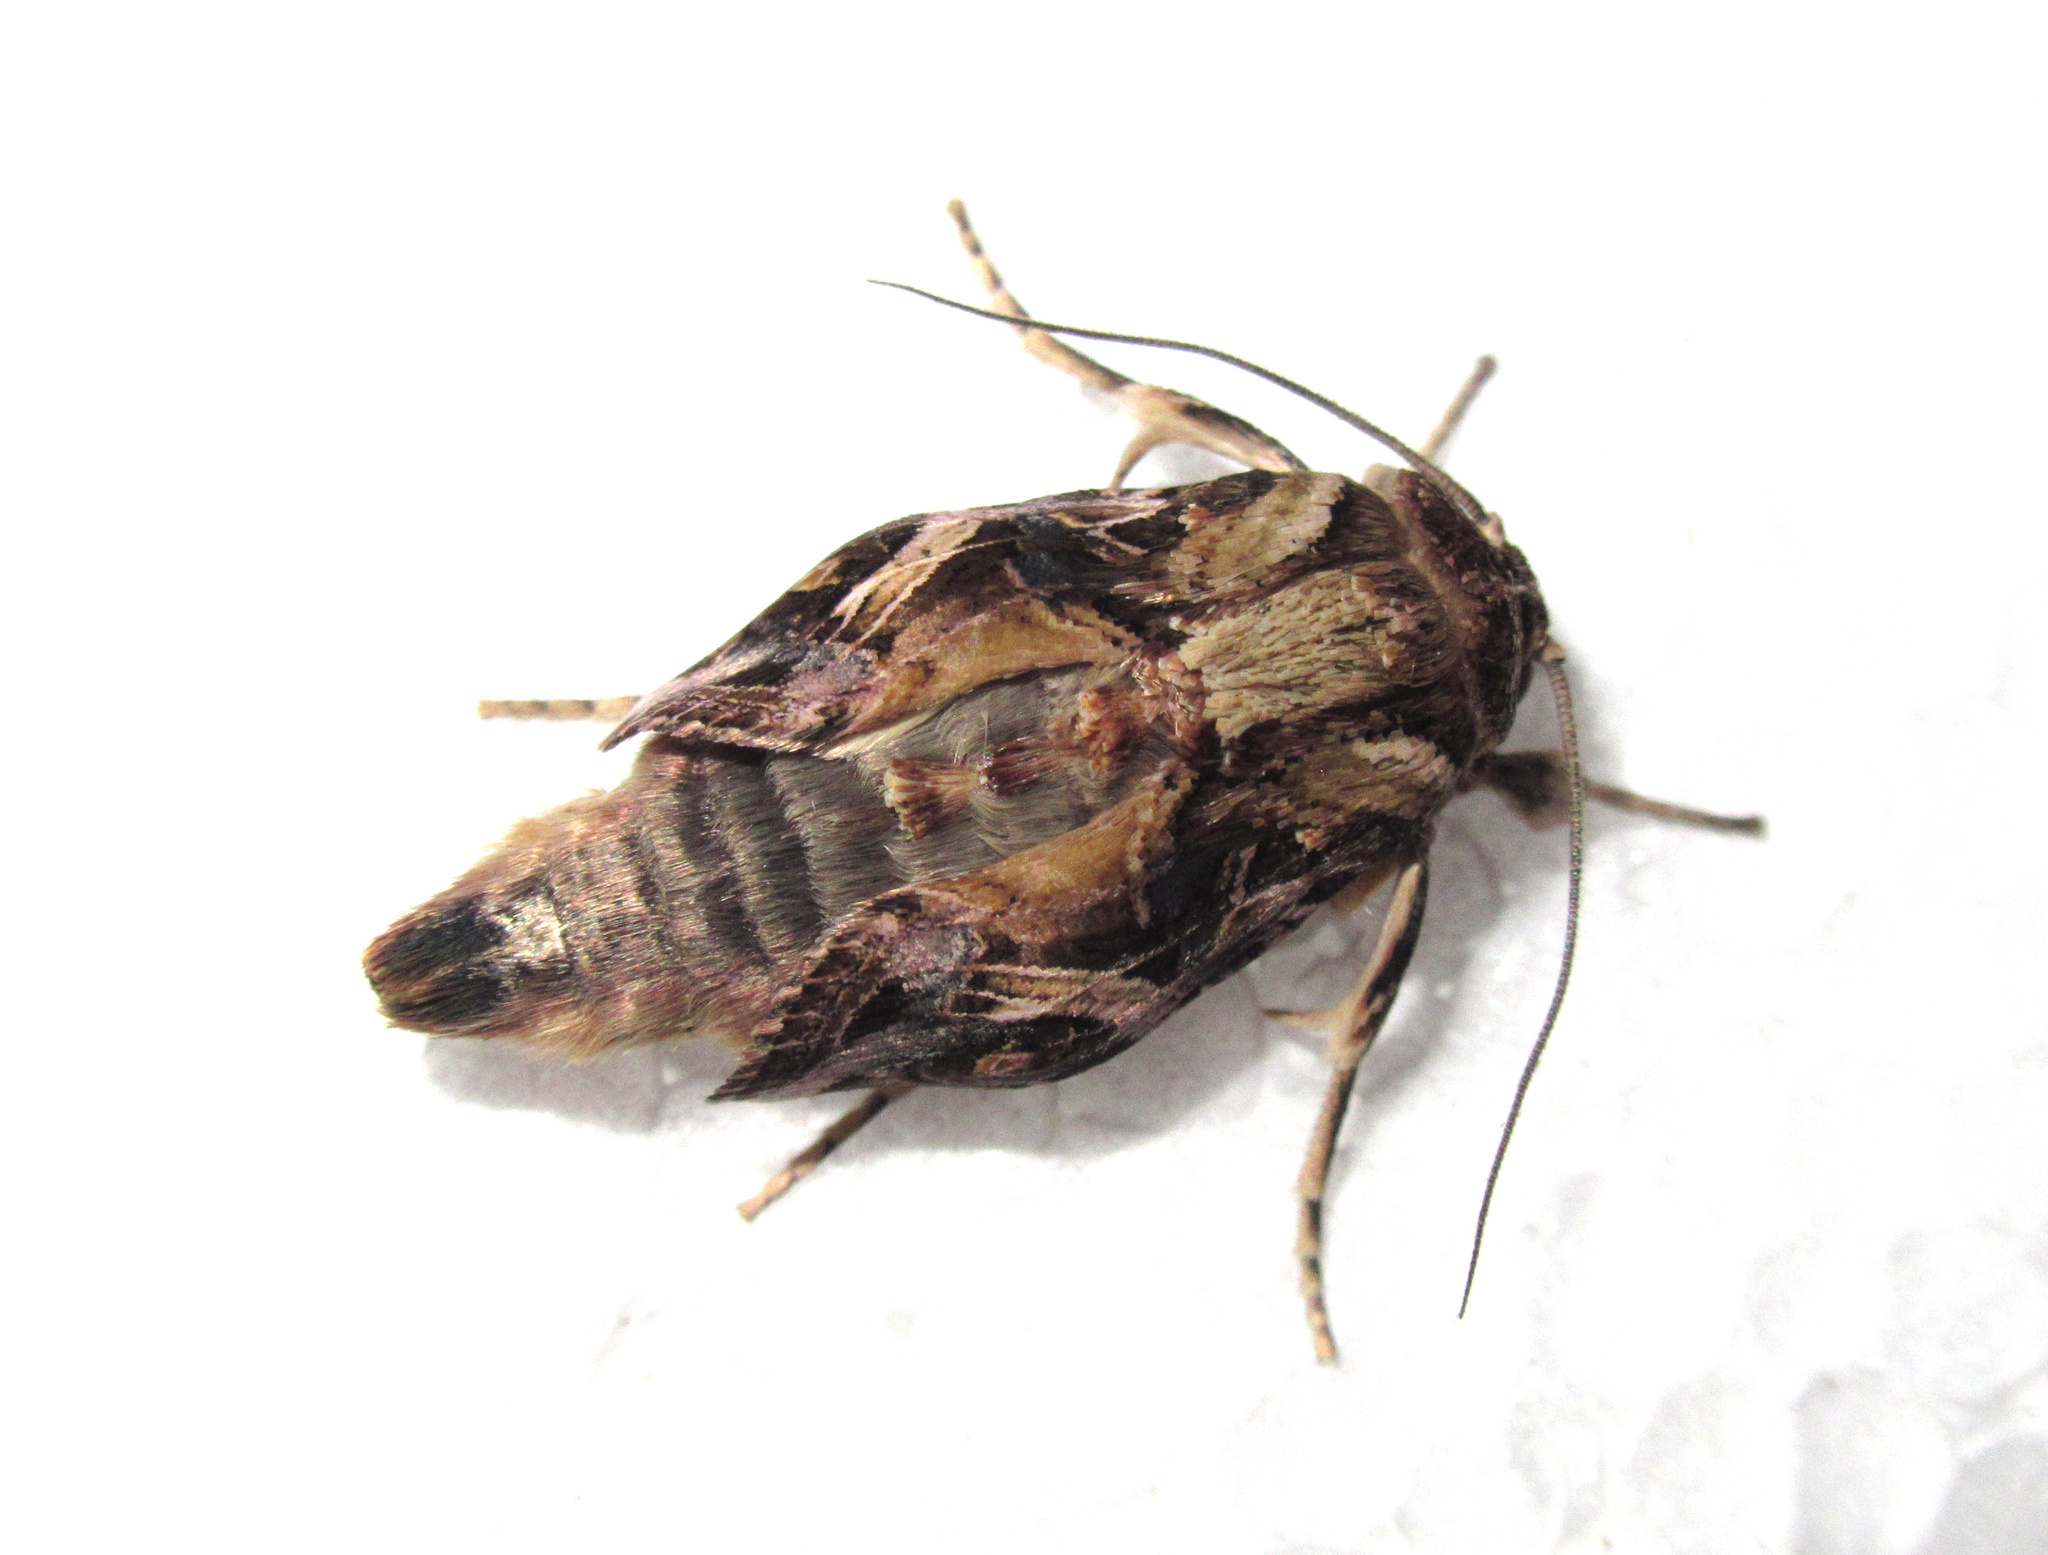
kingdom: Animalia
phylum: Arthropoda
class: Insecta
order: Lepidoptera
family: Noctuidae
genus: Spodoptera
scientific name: Spodoptera litura
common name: Asian cotton leafworm
